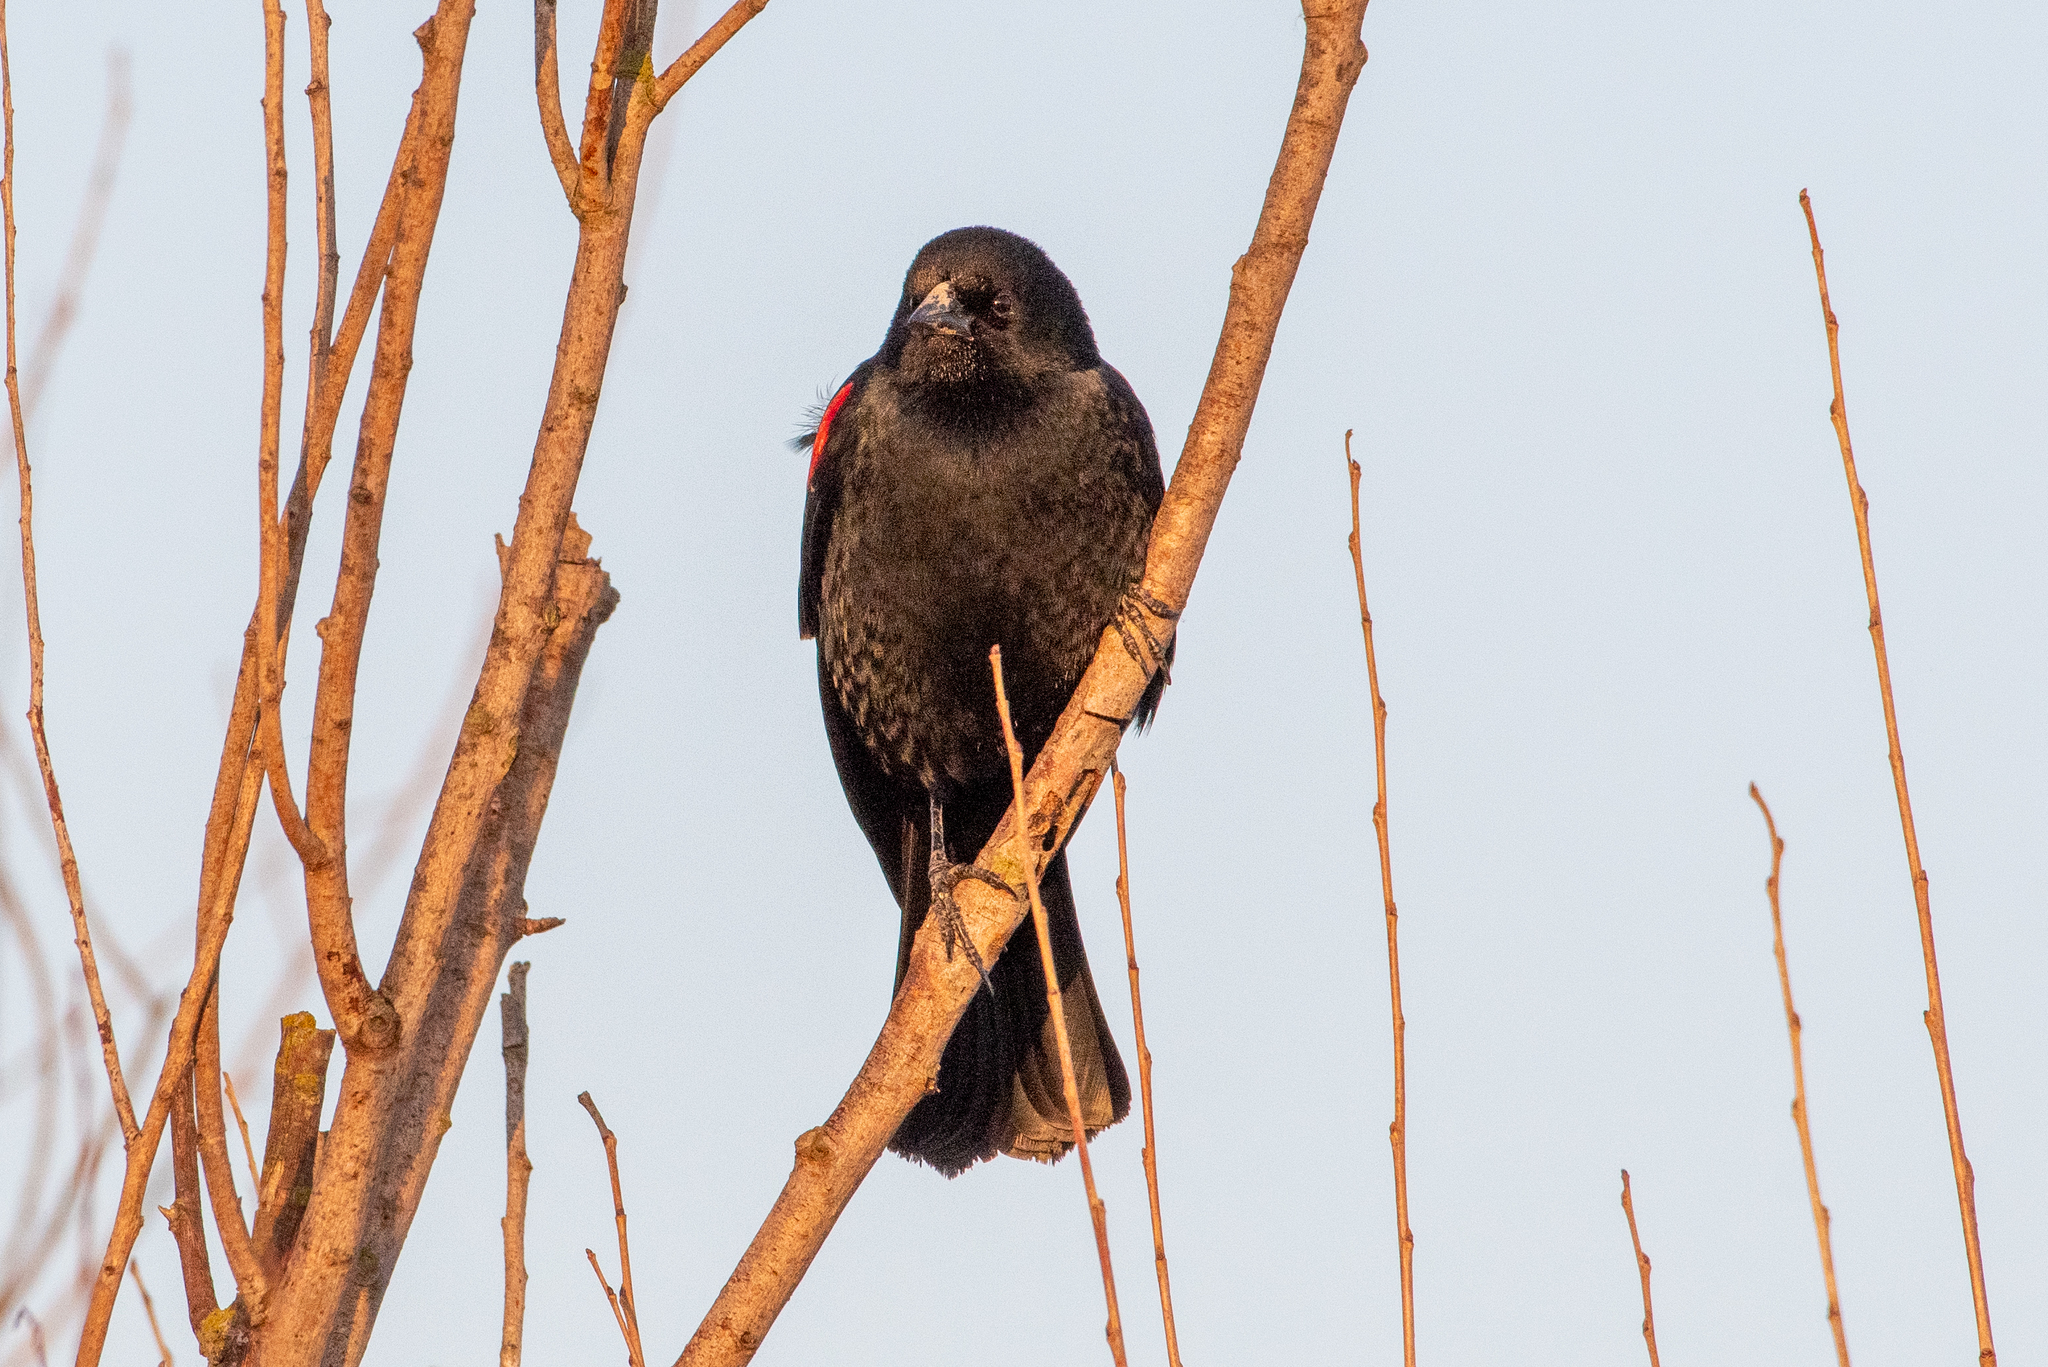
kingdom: Animalia
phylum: Chordata
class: Aves
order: Passeriformes
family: Icteridae
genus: Agelaius
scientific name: Agelaius phoeniceus
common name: Red-winged blackbird
